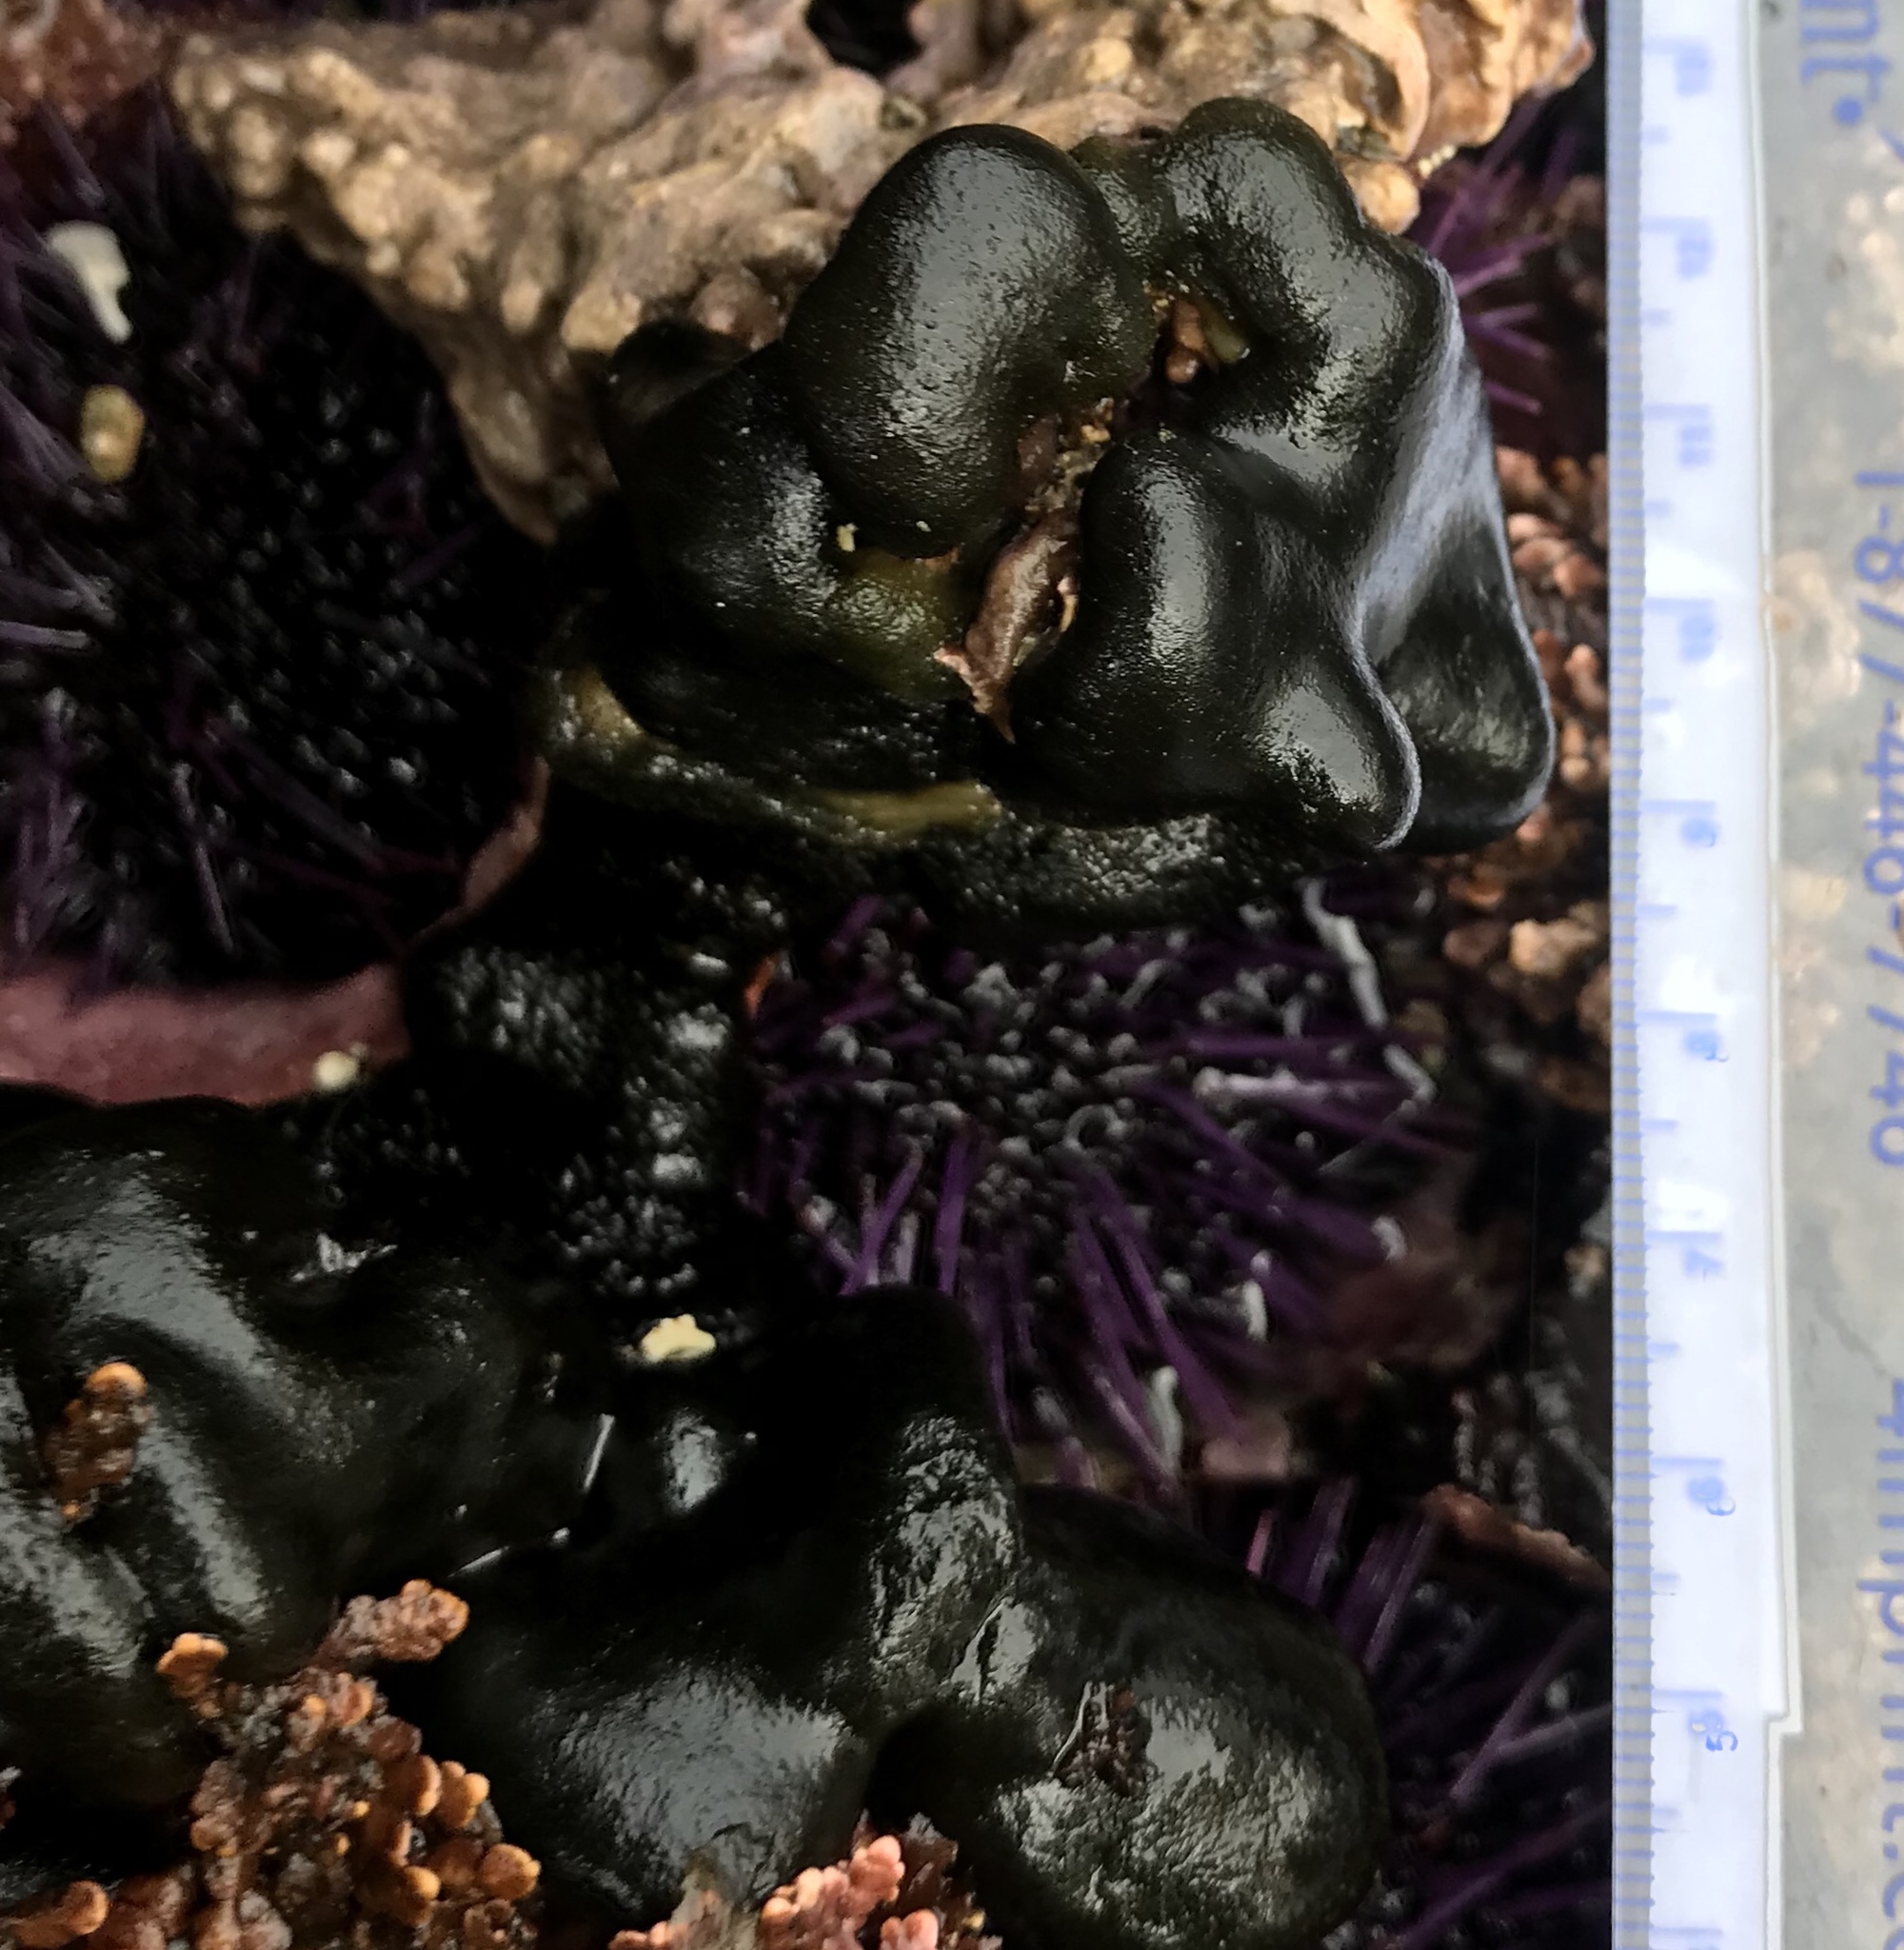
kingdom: Animalia
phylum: Echinodermata
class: Echinoidea
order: Camarodonta
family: Strongylocentrotidae
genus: Strongylocentrotus
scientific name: Strongylocentrotus purpuratus
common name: Purple sea urchin
